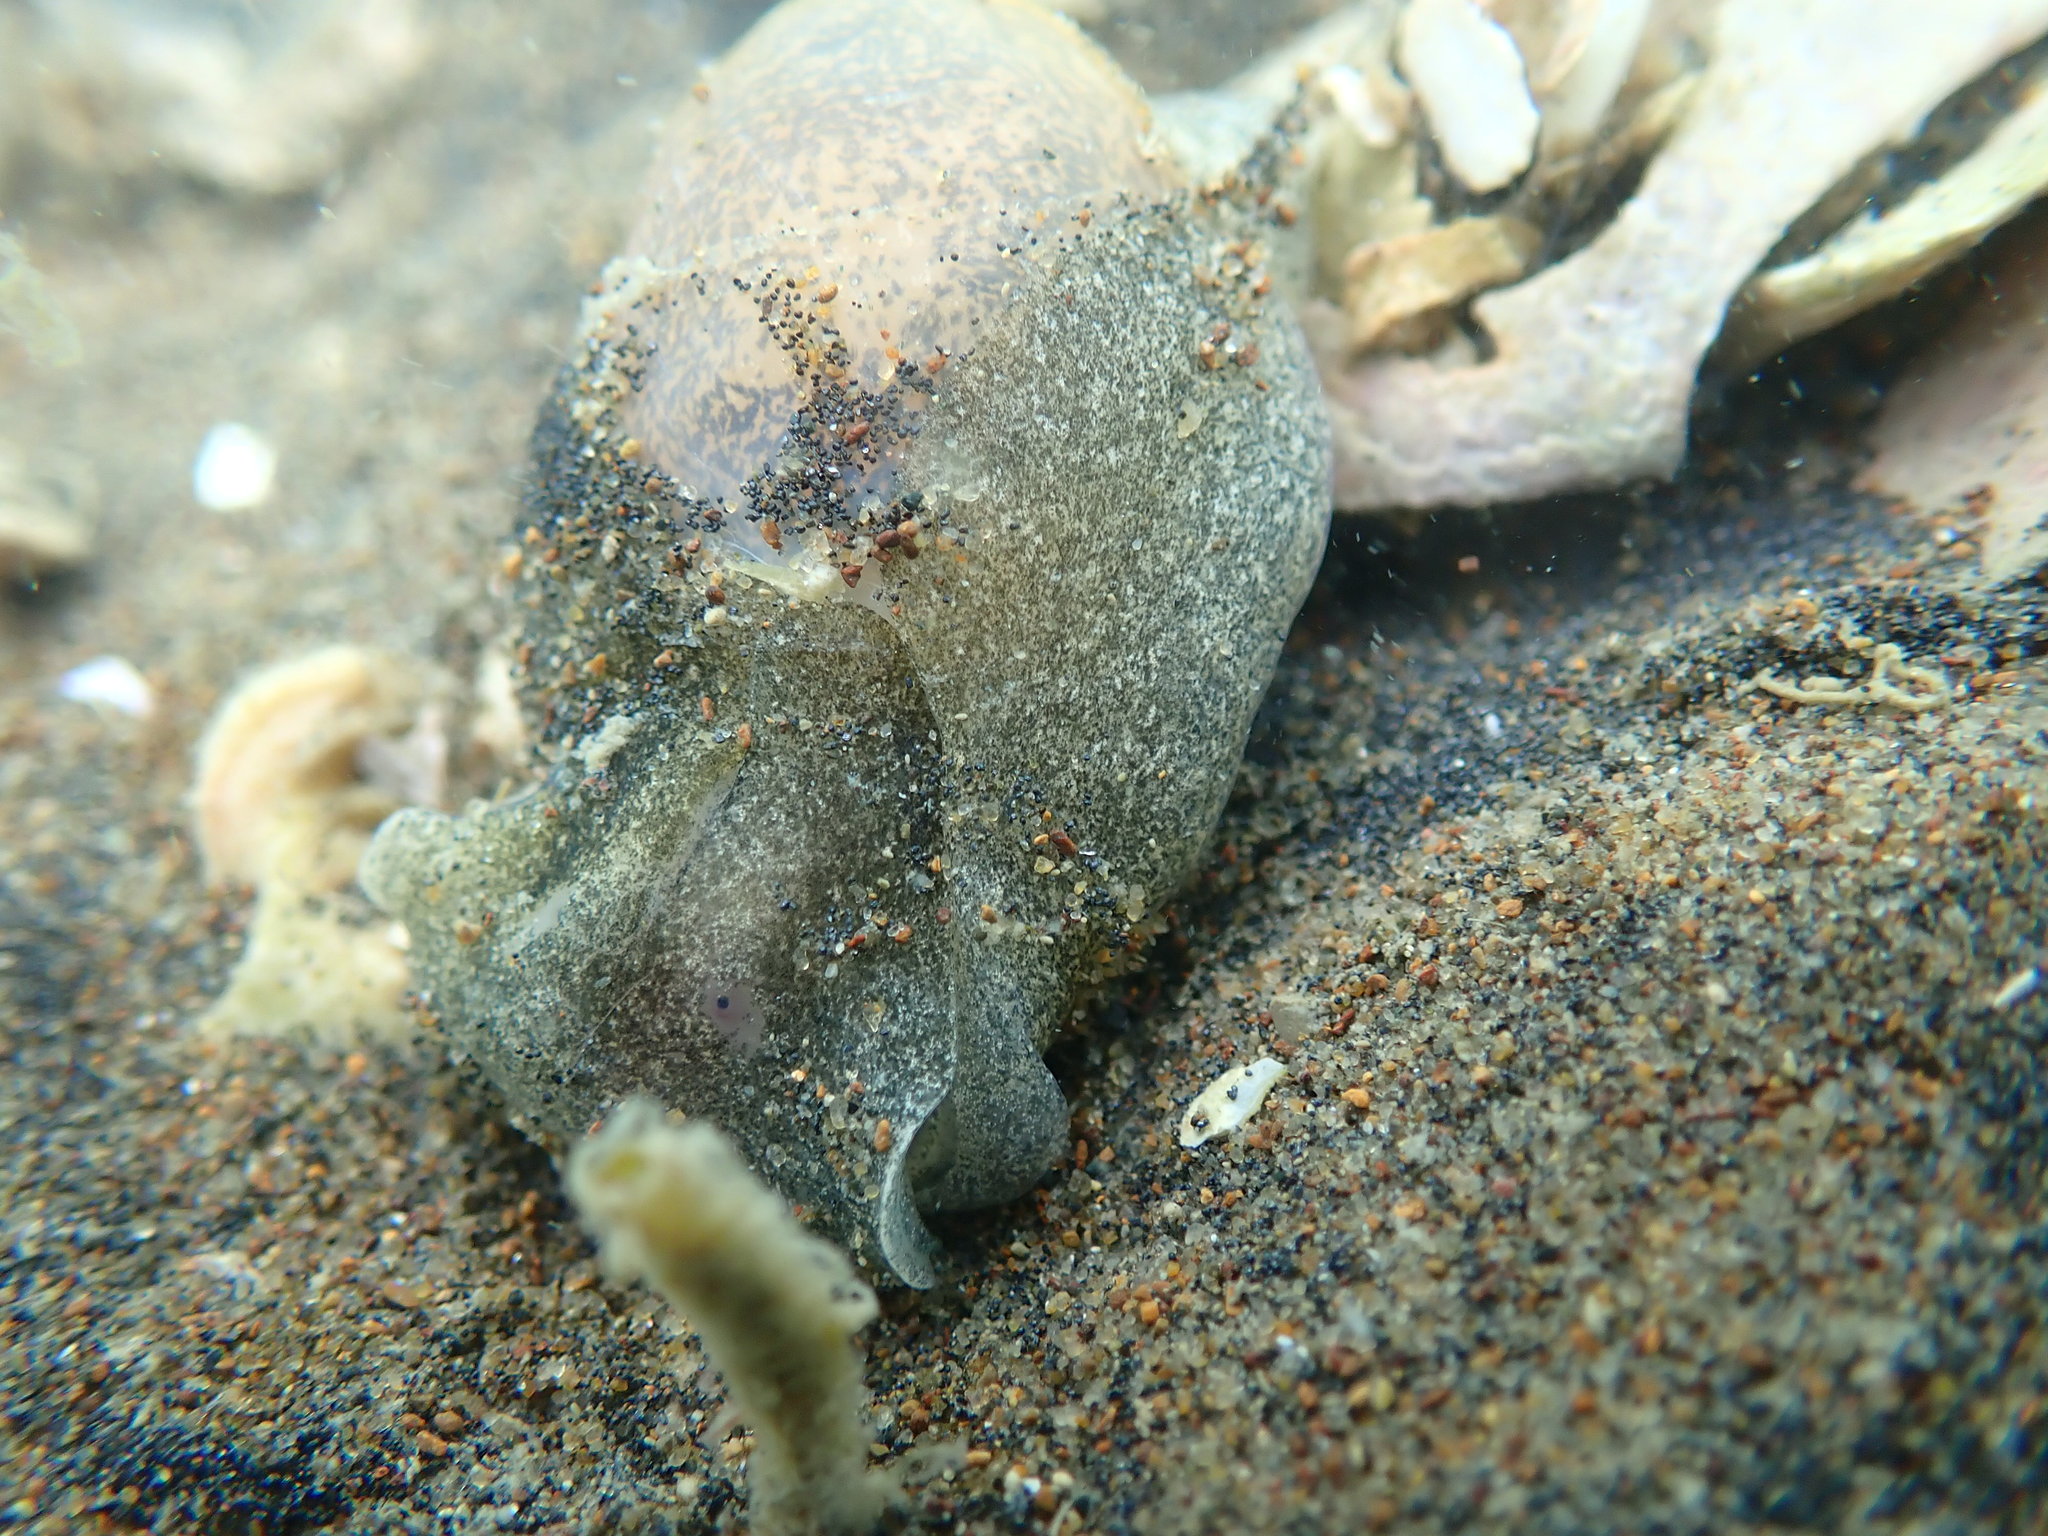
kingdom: Animalia
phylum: Mollusca
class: Gastropoda
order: Cephalaspidea
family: Haminoeidae
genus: Papawera
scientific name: Papawera zelandiae
